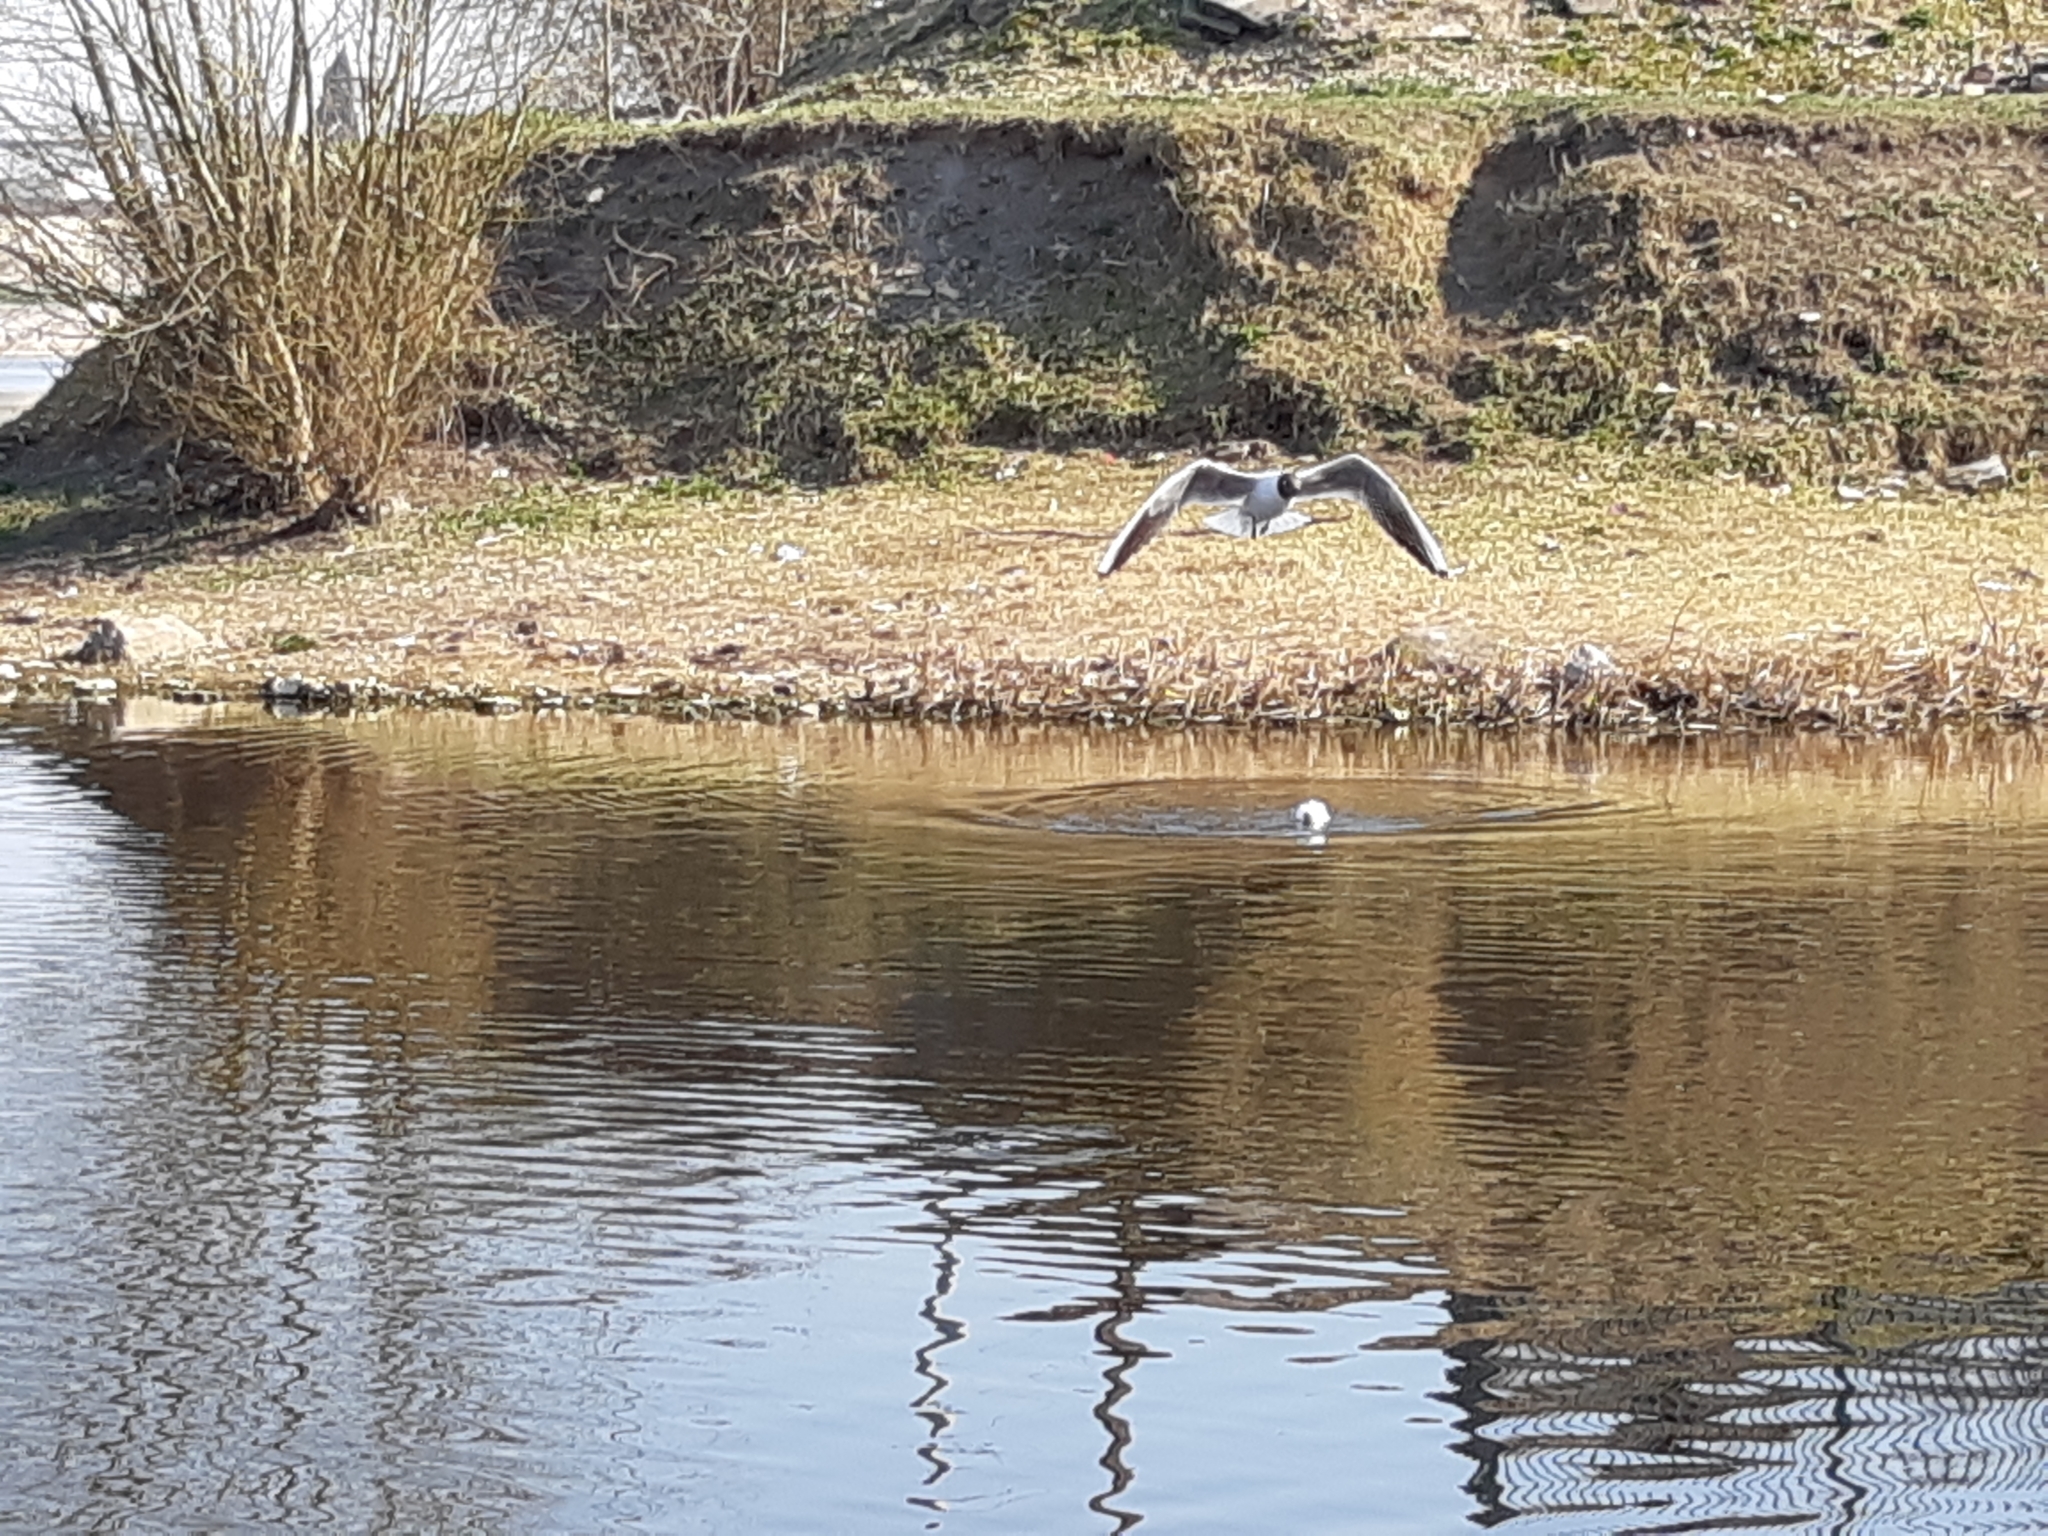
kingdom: Animalia
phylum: Chordata
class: Aves
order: Charadriiformes
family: Laridae
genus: Chroicocephalus
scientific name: Chroicocephalus ridibundus
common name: Black-headed gull
